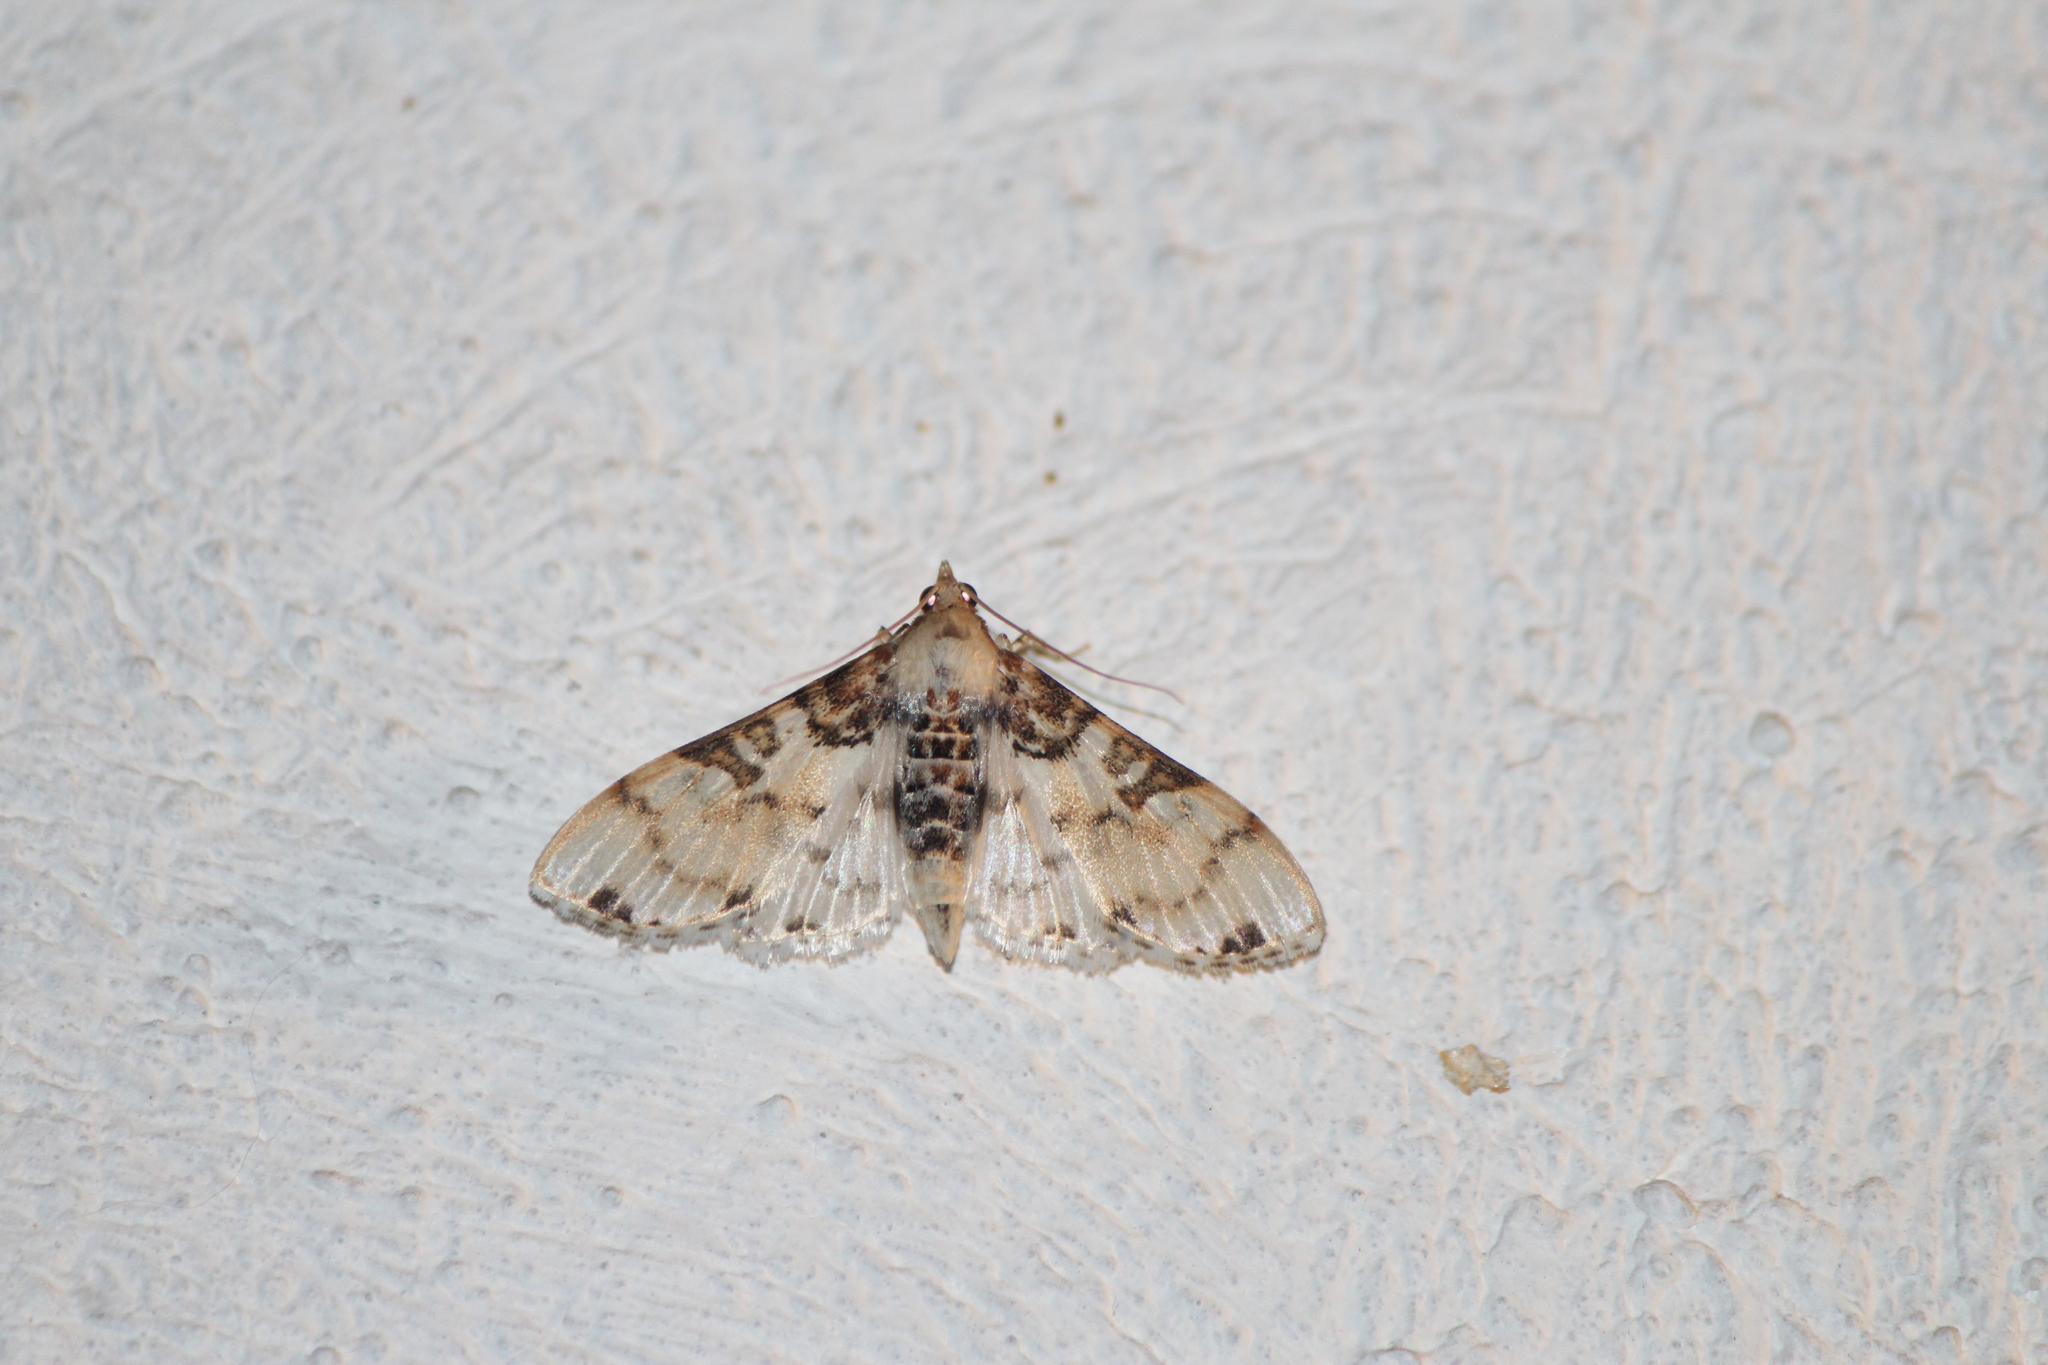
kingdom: Animalia
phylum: Arthropoda
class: Insecta
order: Lepidoptera
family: Crambidae
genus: Azochis
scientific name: Azochis rufidiscalis
